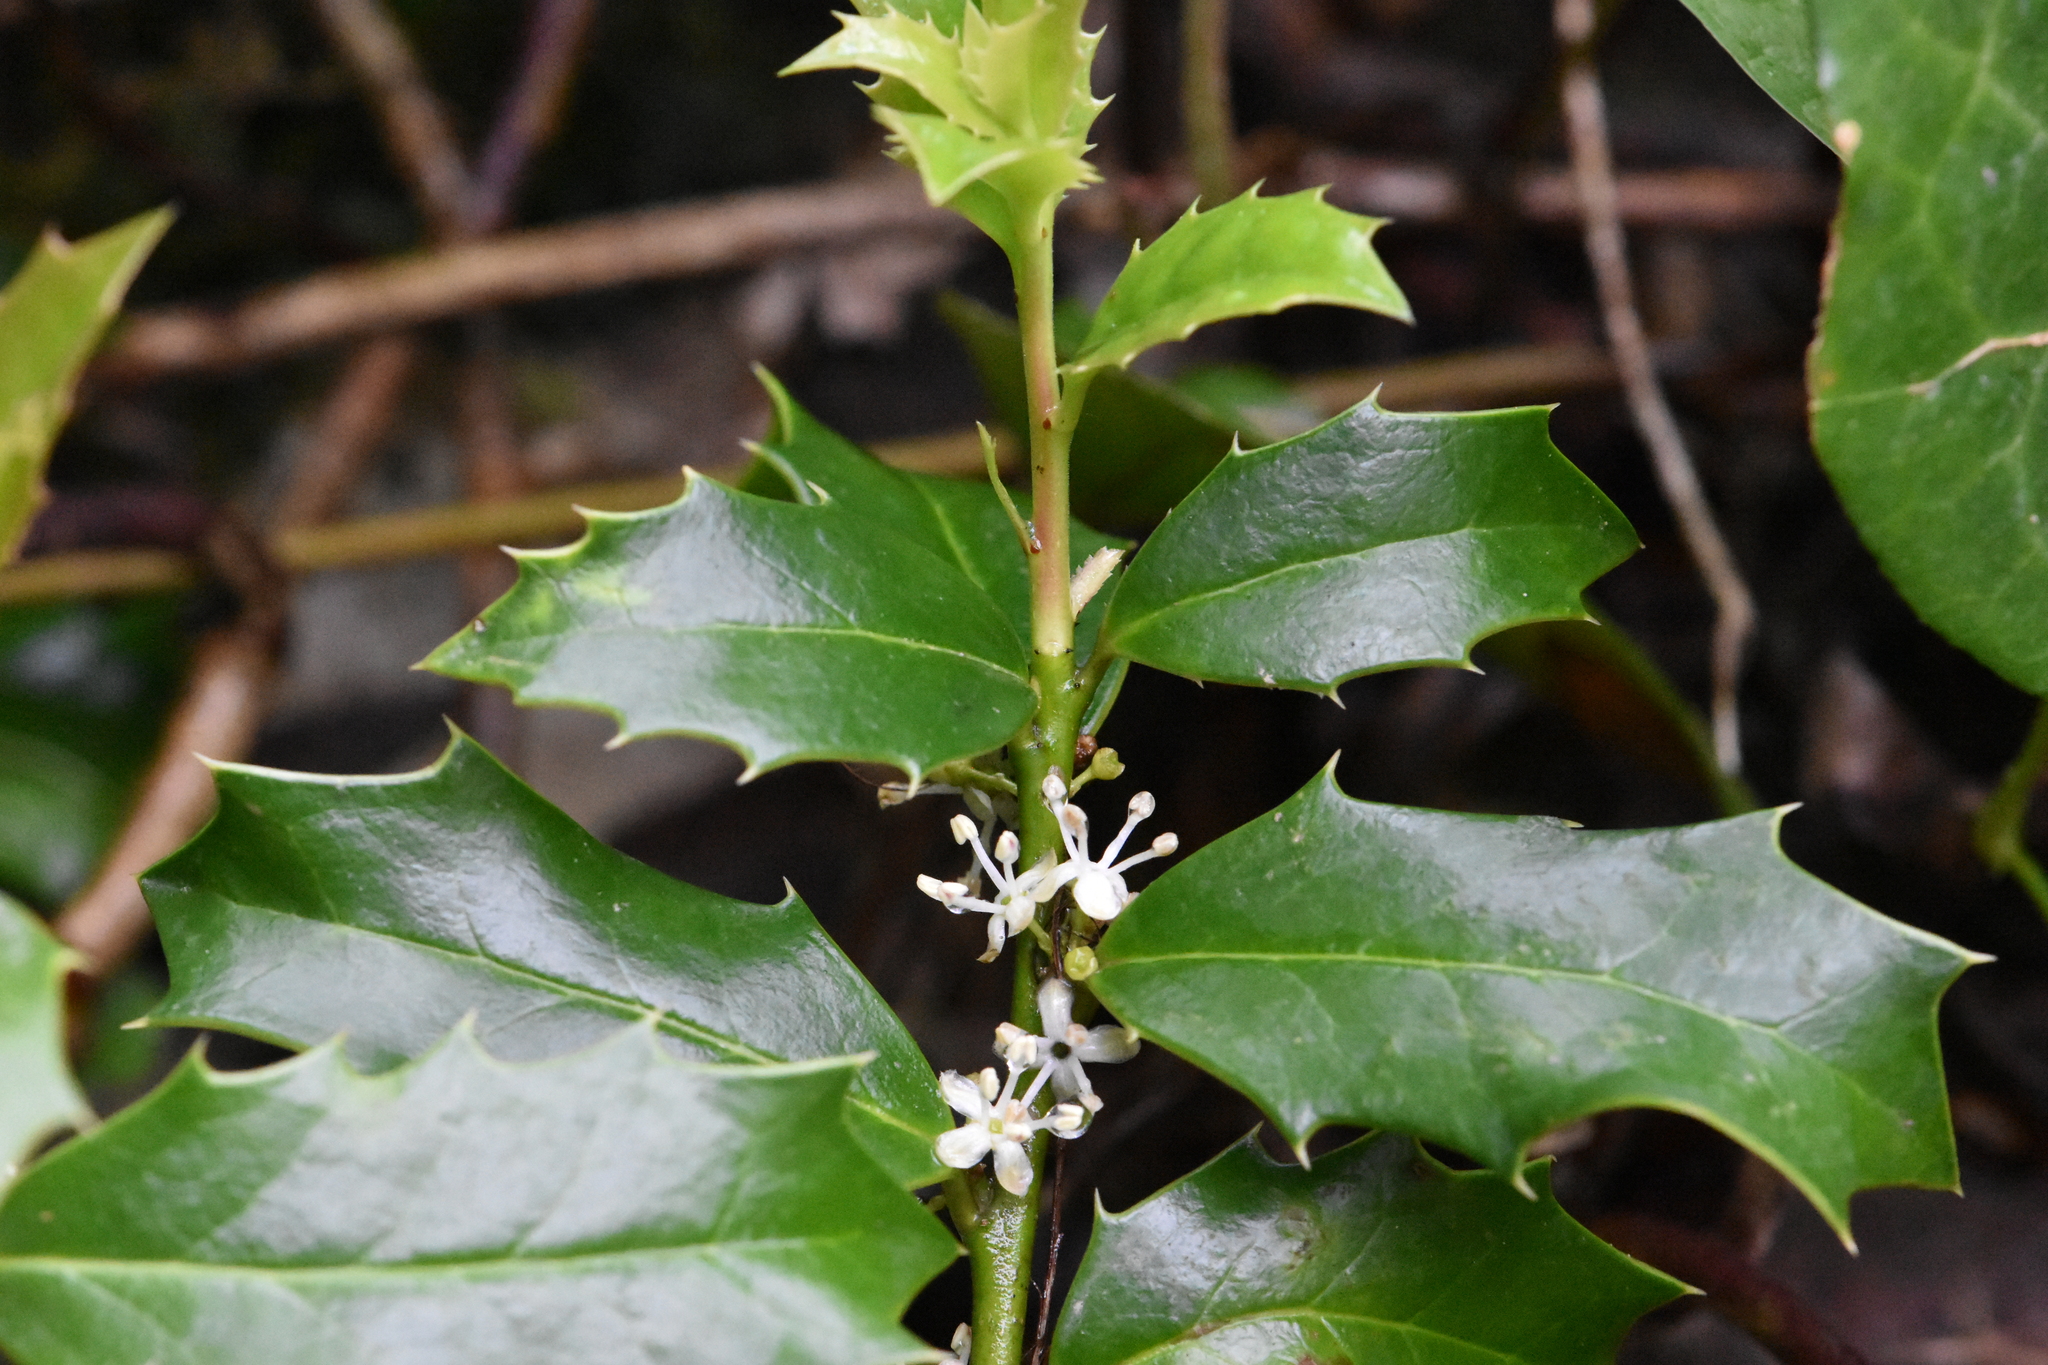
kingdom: Plantae
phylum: Tracheophyta
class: Magnoliopsida
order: Aquifoliales
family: Aquifoliaceae
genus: Ilex
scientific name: Ilex colchica
